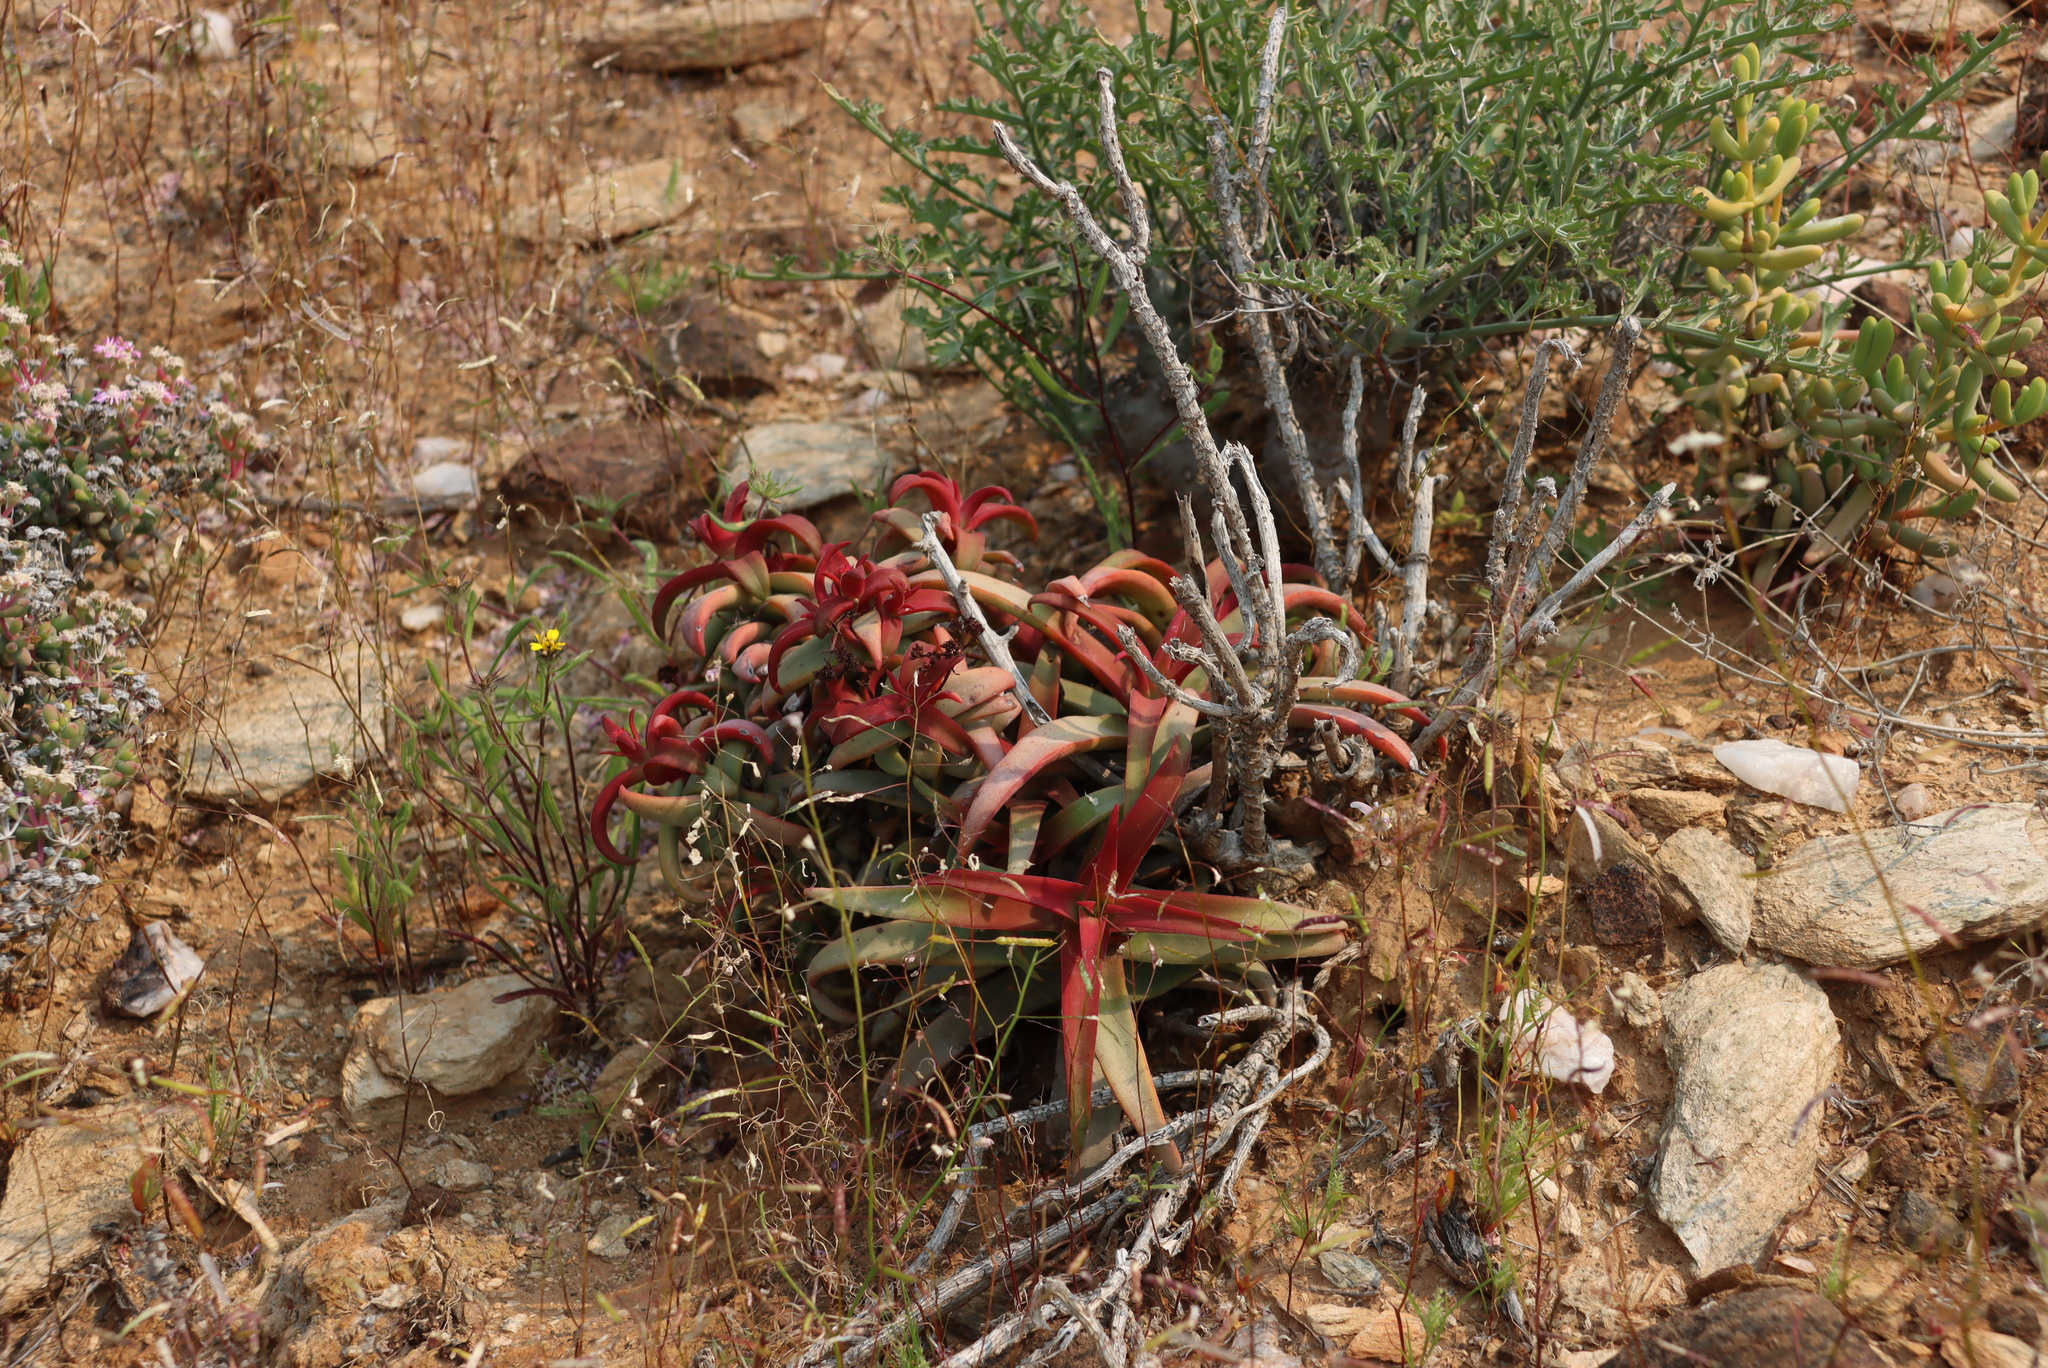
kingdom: Plantae
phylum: Tracheophyta
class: Magnoliopsida
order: Saxifragales
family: Crassulaceae
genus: Crassula
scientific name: Crassula fusca
